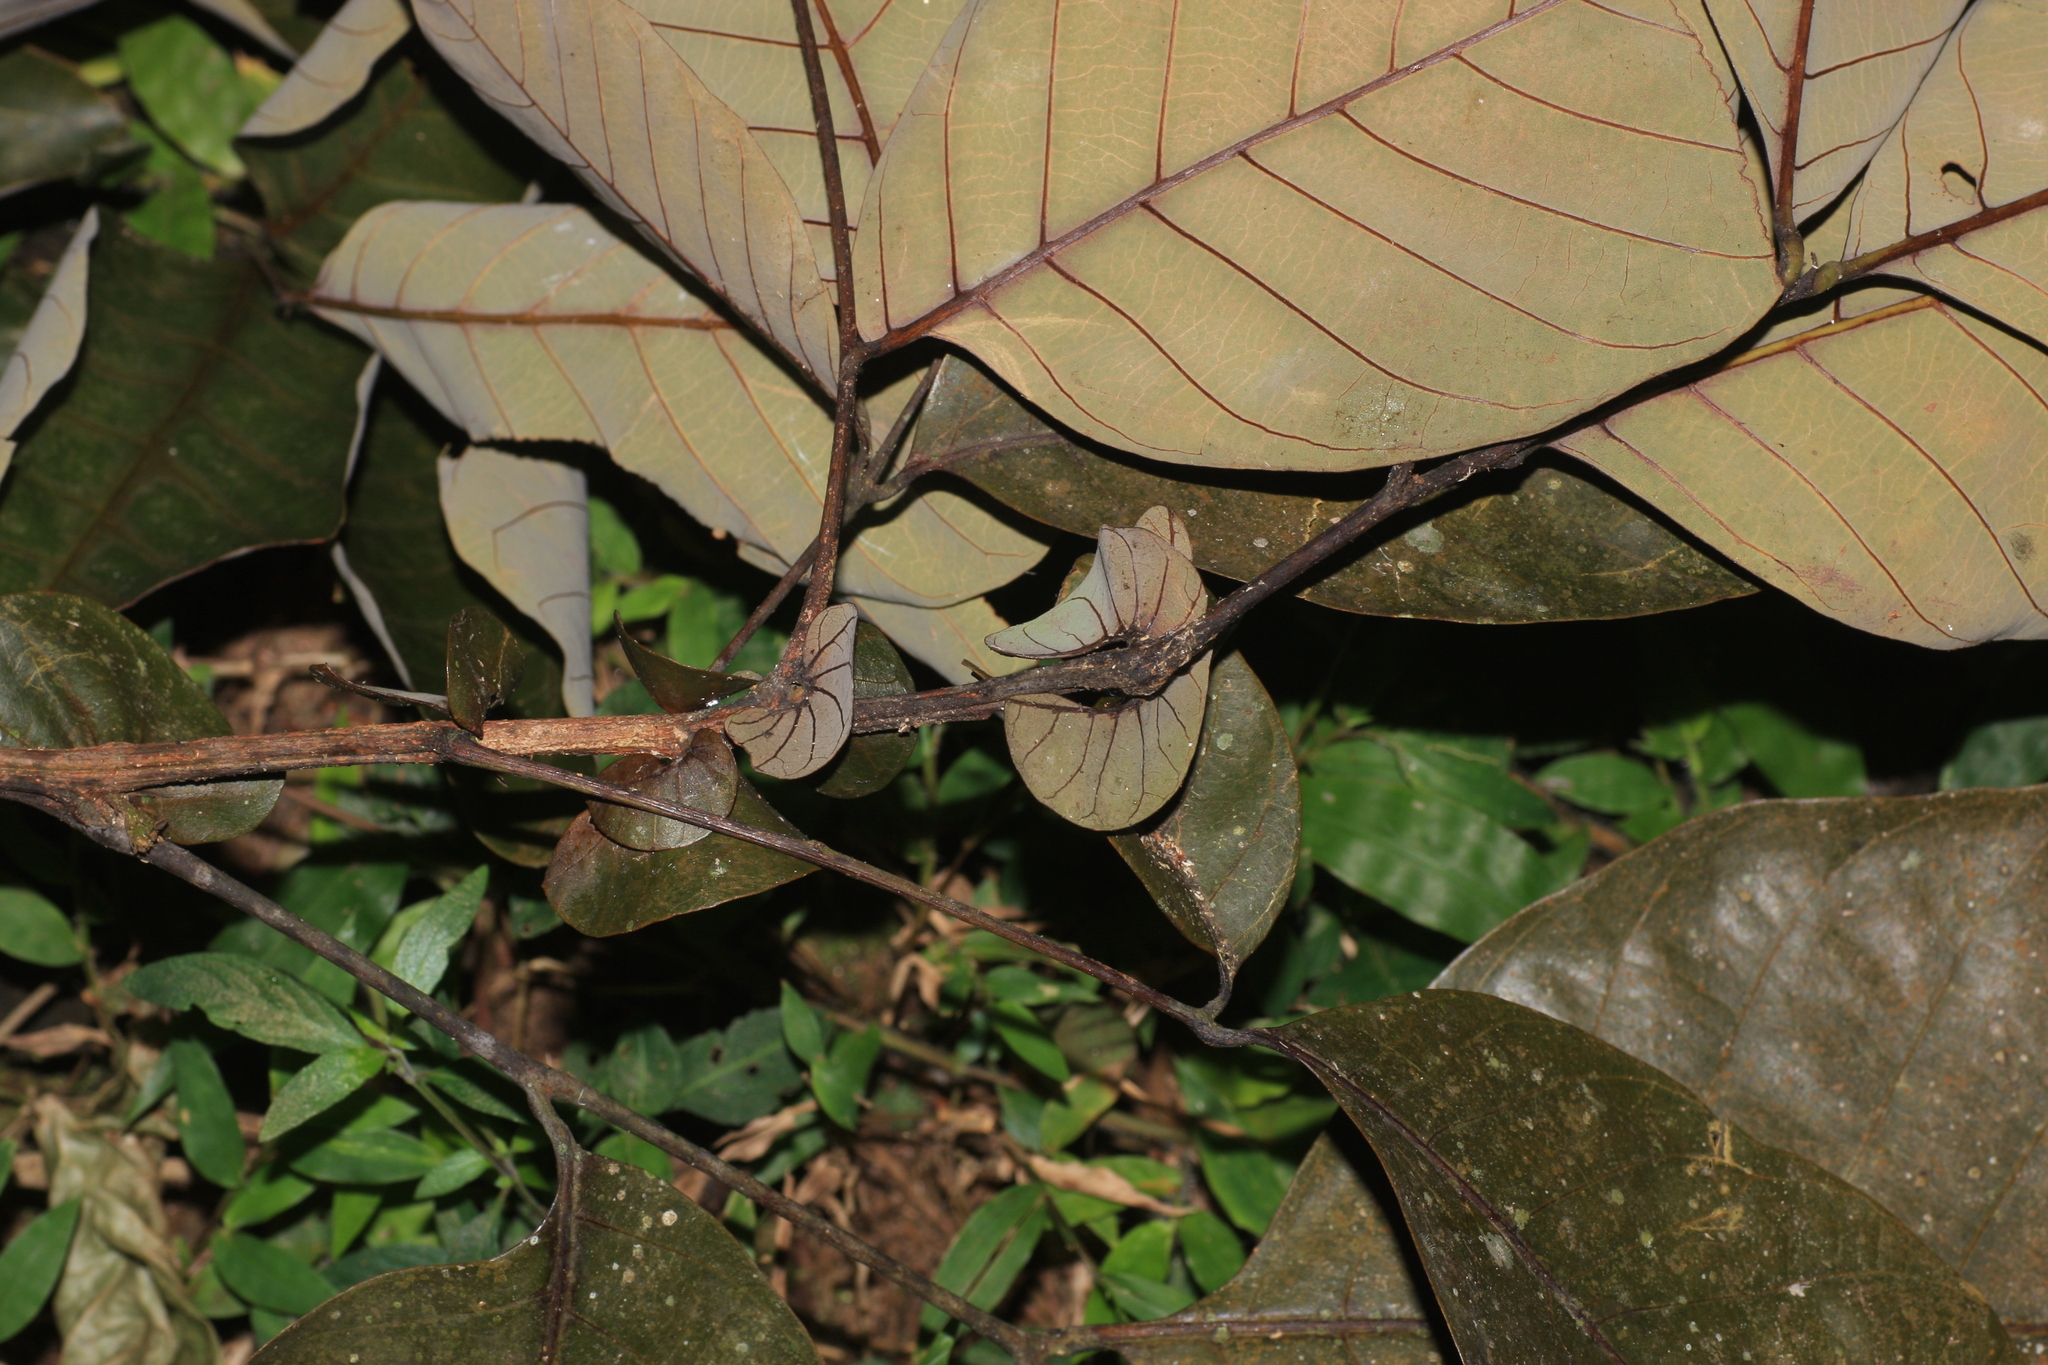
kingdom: Plantae
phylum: Tracheophyta
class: Magnoliopsida
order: Sapindales
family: Sapindaceae
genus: Otonephelium
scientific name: Otonephelium stipulaceum
